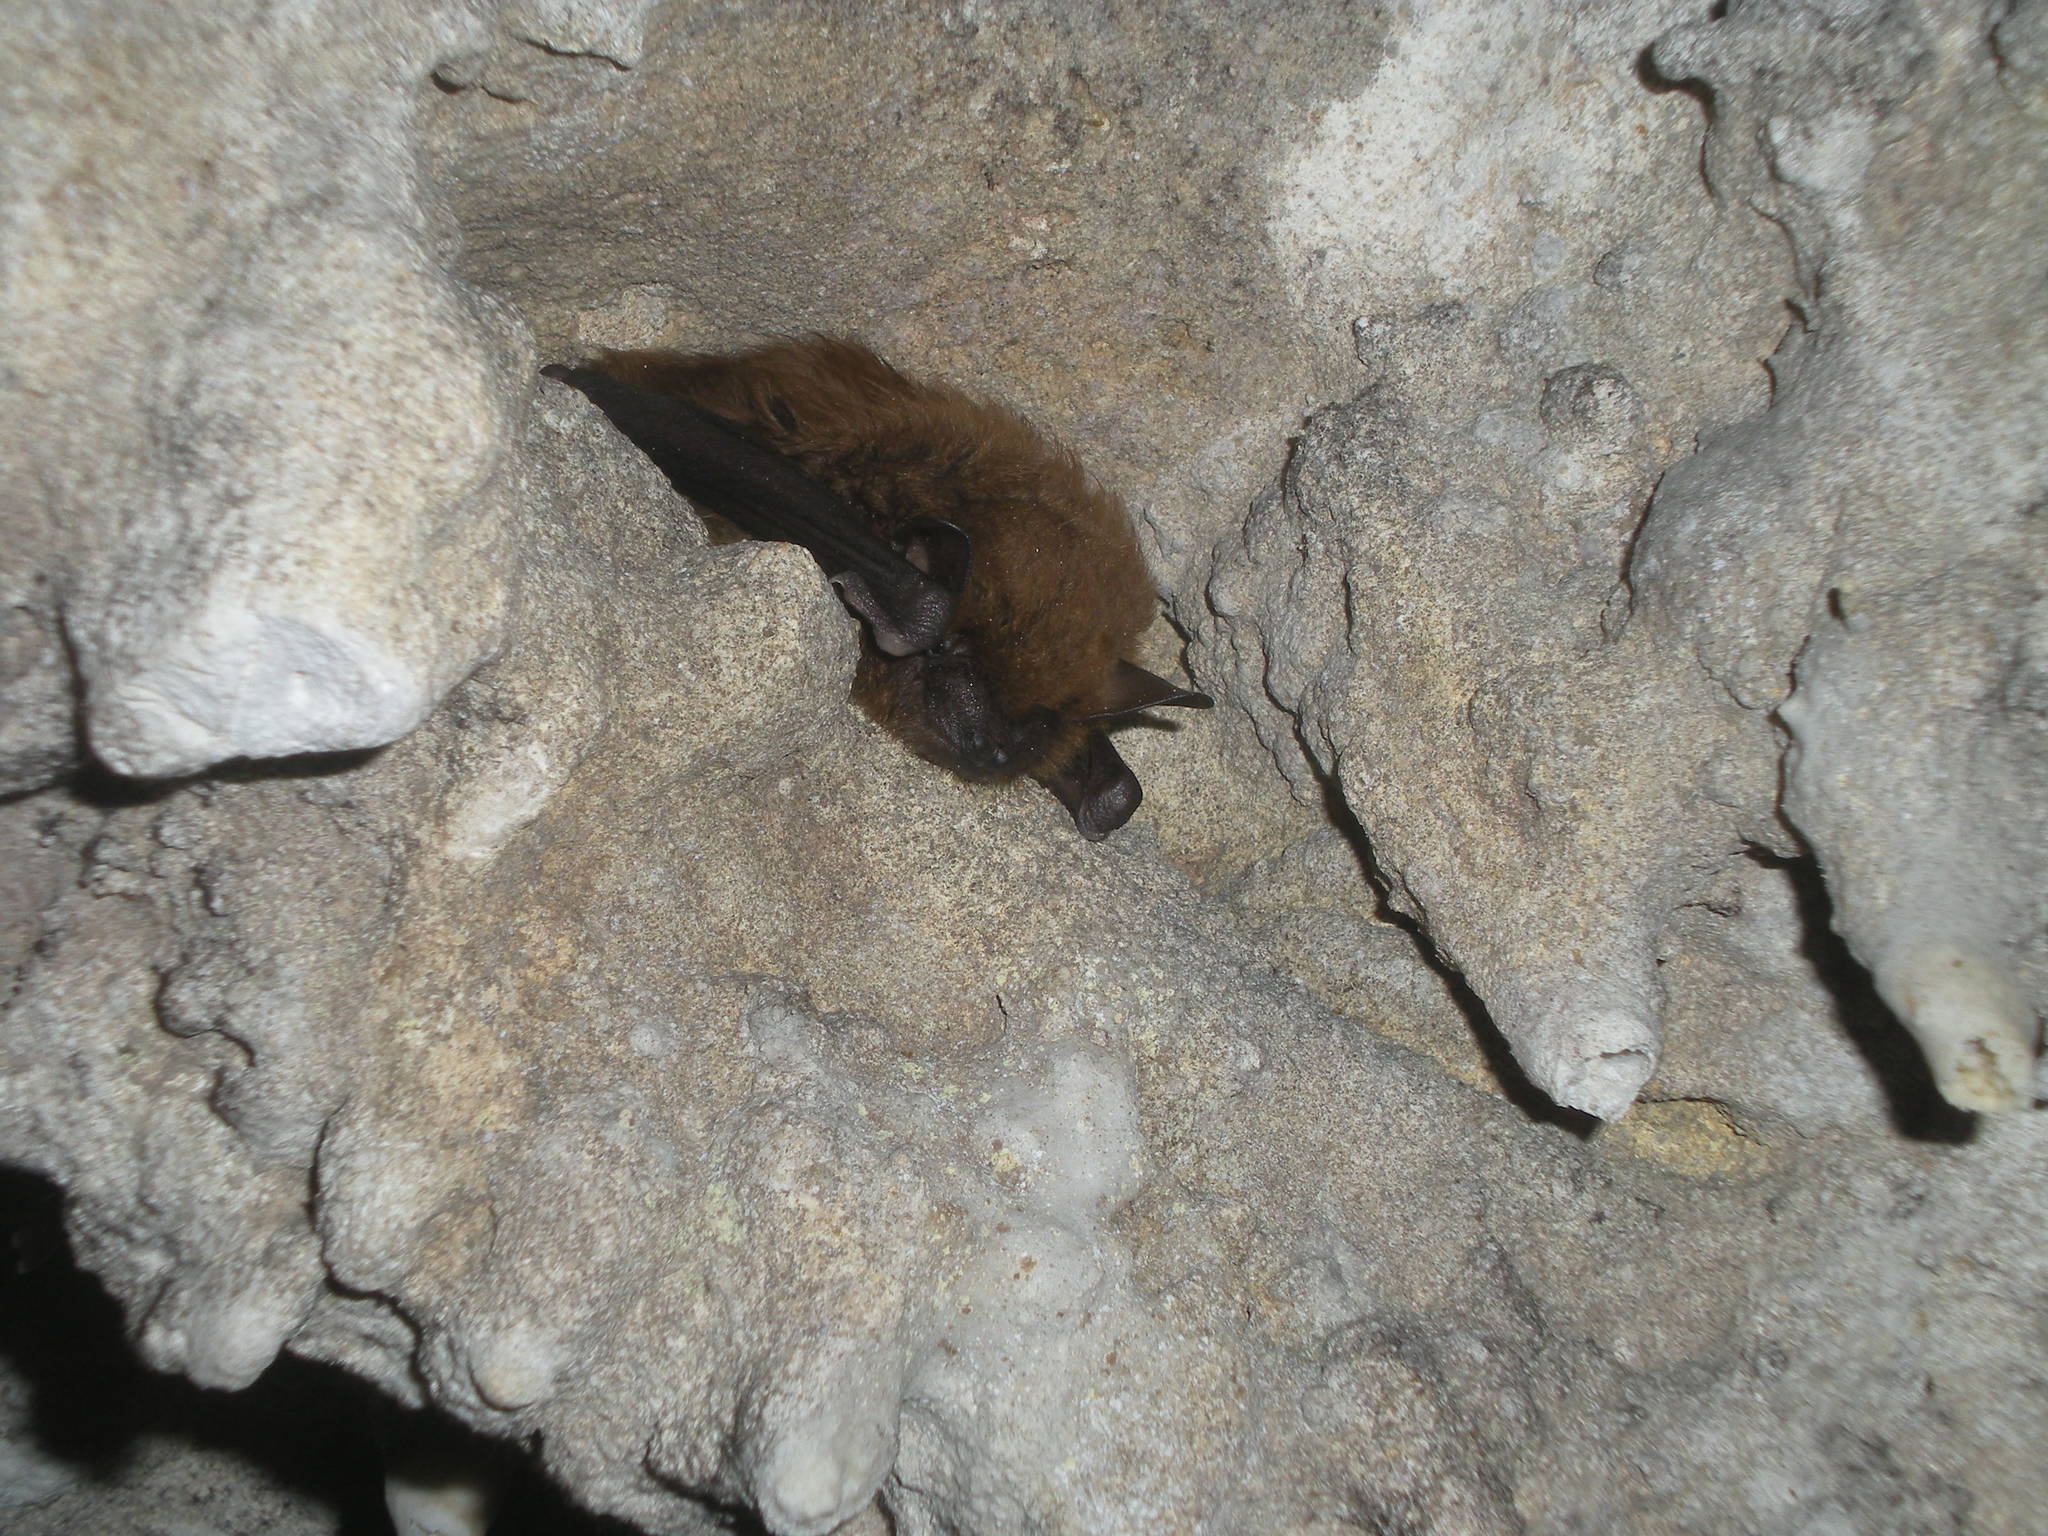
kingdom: Animalia
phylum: Chordata
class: Mammalia
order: Chiroptera
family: Vespertilionidae
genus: Eptesicus
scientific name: Eptesicus fuscus
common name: Big brown bat
